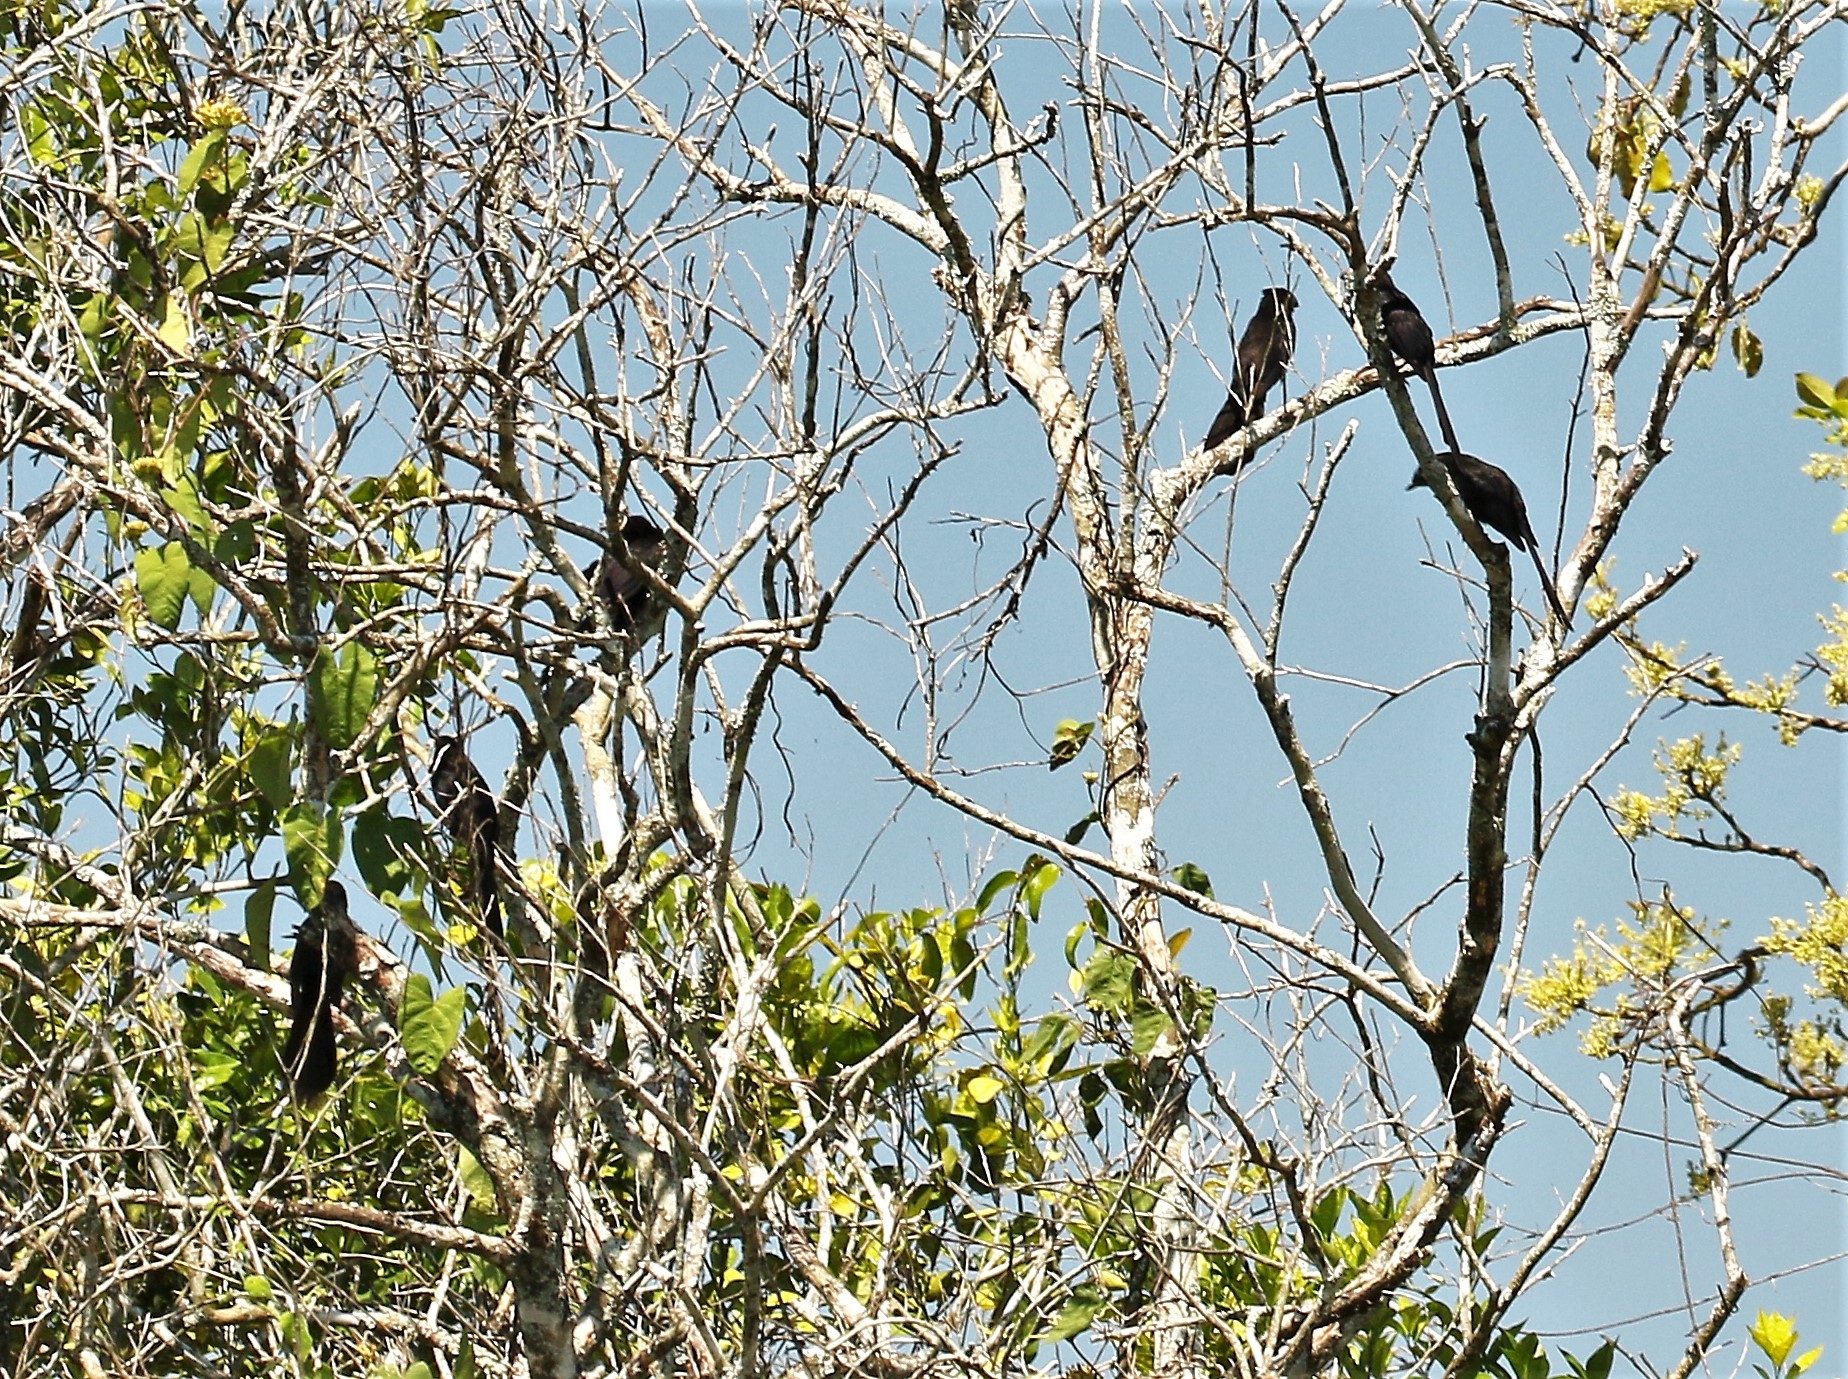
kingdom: Animalia
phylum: Chordata
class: Aves
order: Cuculiformes
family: Cuculidae
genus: Crotophaga
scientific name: Crotophaga sulcirostris
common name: Groove-billed ani
